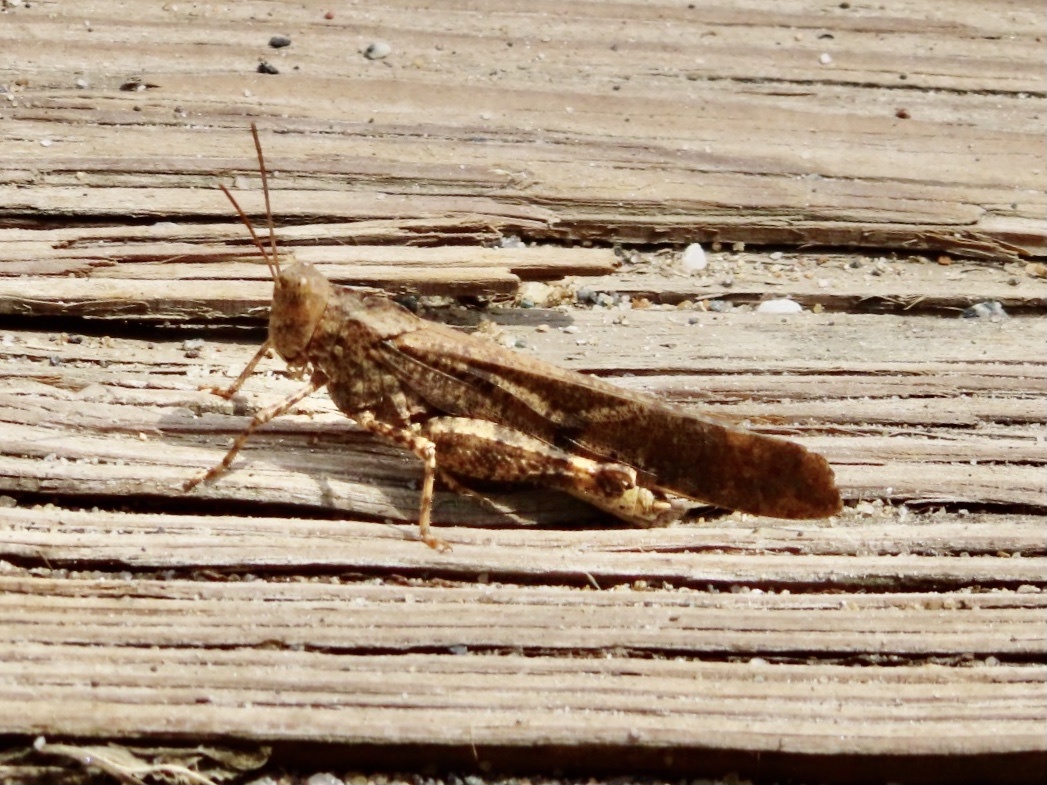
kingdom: Animalia
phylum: Arthropoda
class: Insecta
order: Orthoptera
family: Acrididae
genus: Dissosteira
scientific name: Dissosteira carolina
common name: Carolina grasshopper
